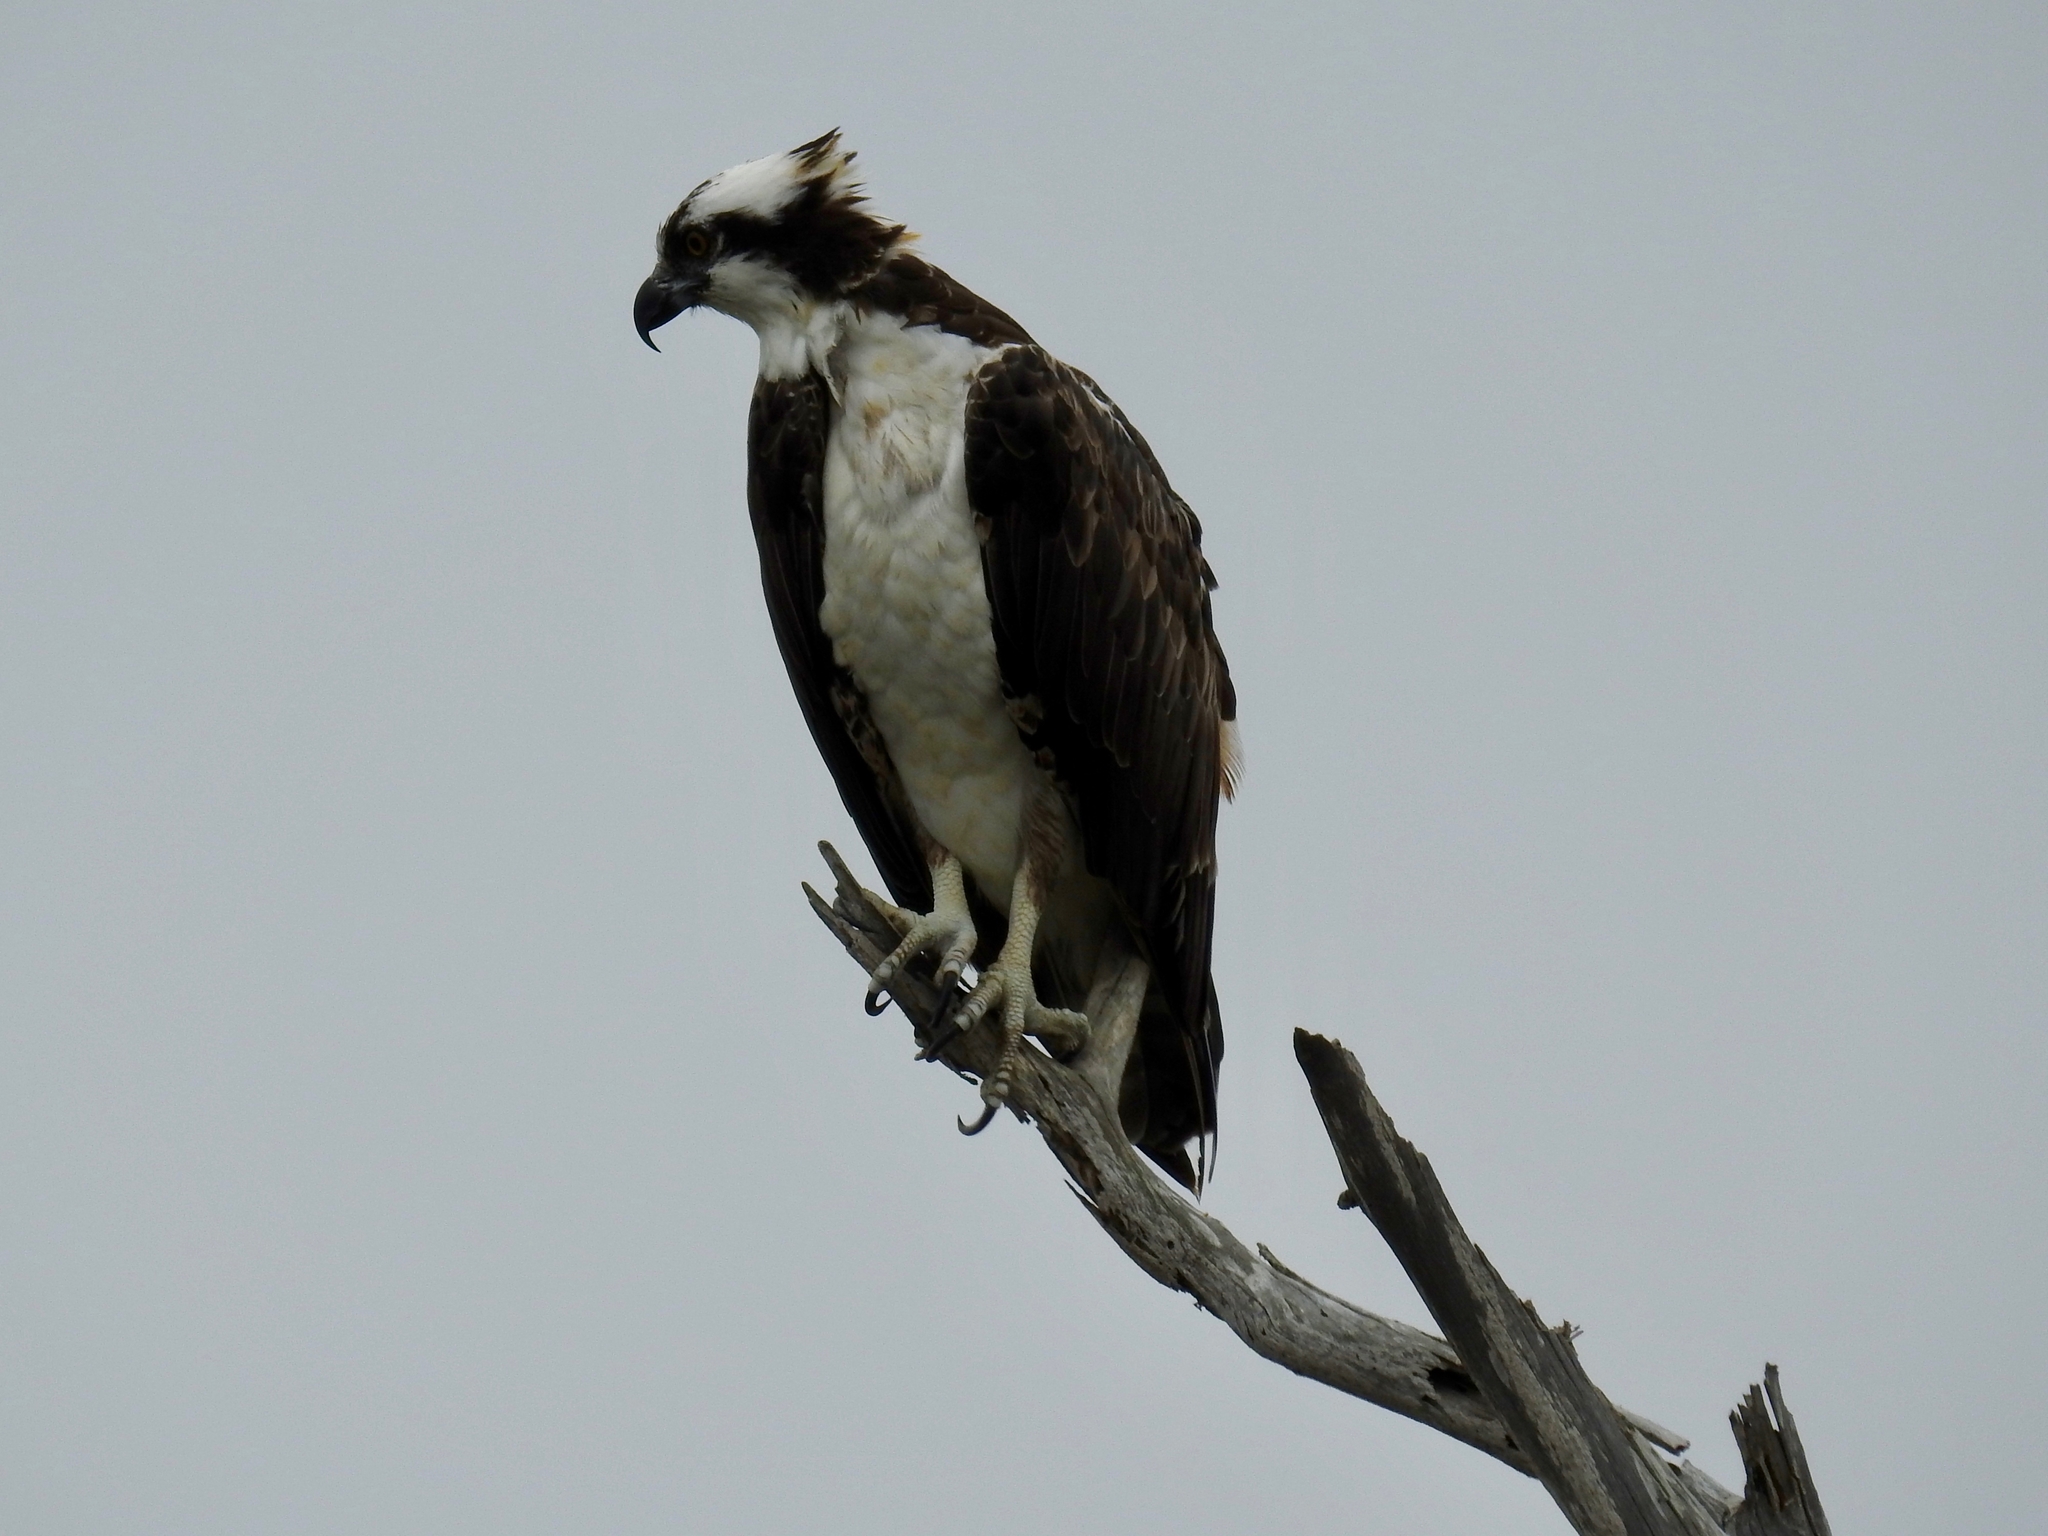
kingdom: Animalia
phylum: Chordata
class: Aves
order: Accipitriformes
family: Pandionidae
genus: Pandion
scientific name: Pandion haliaetus
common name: Osprey
